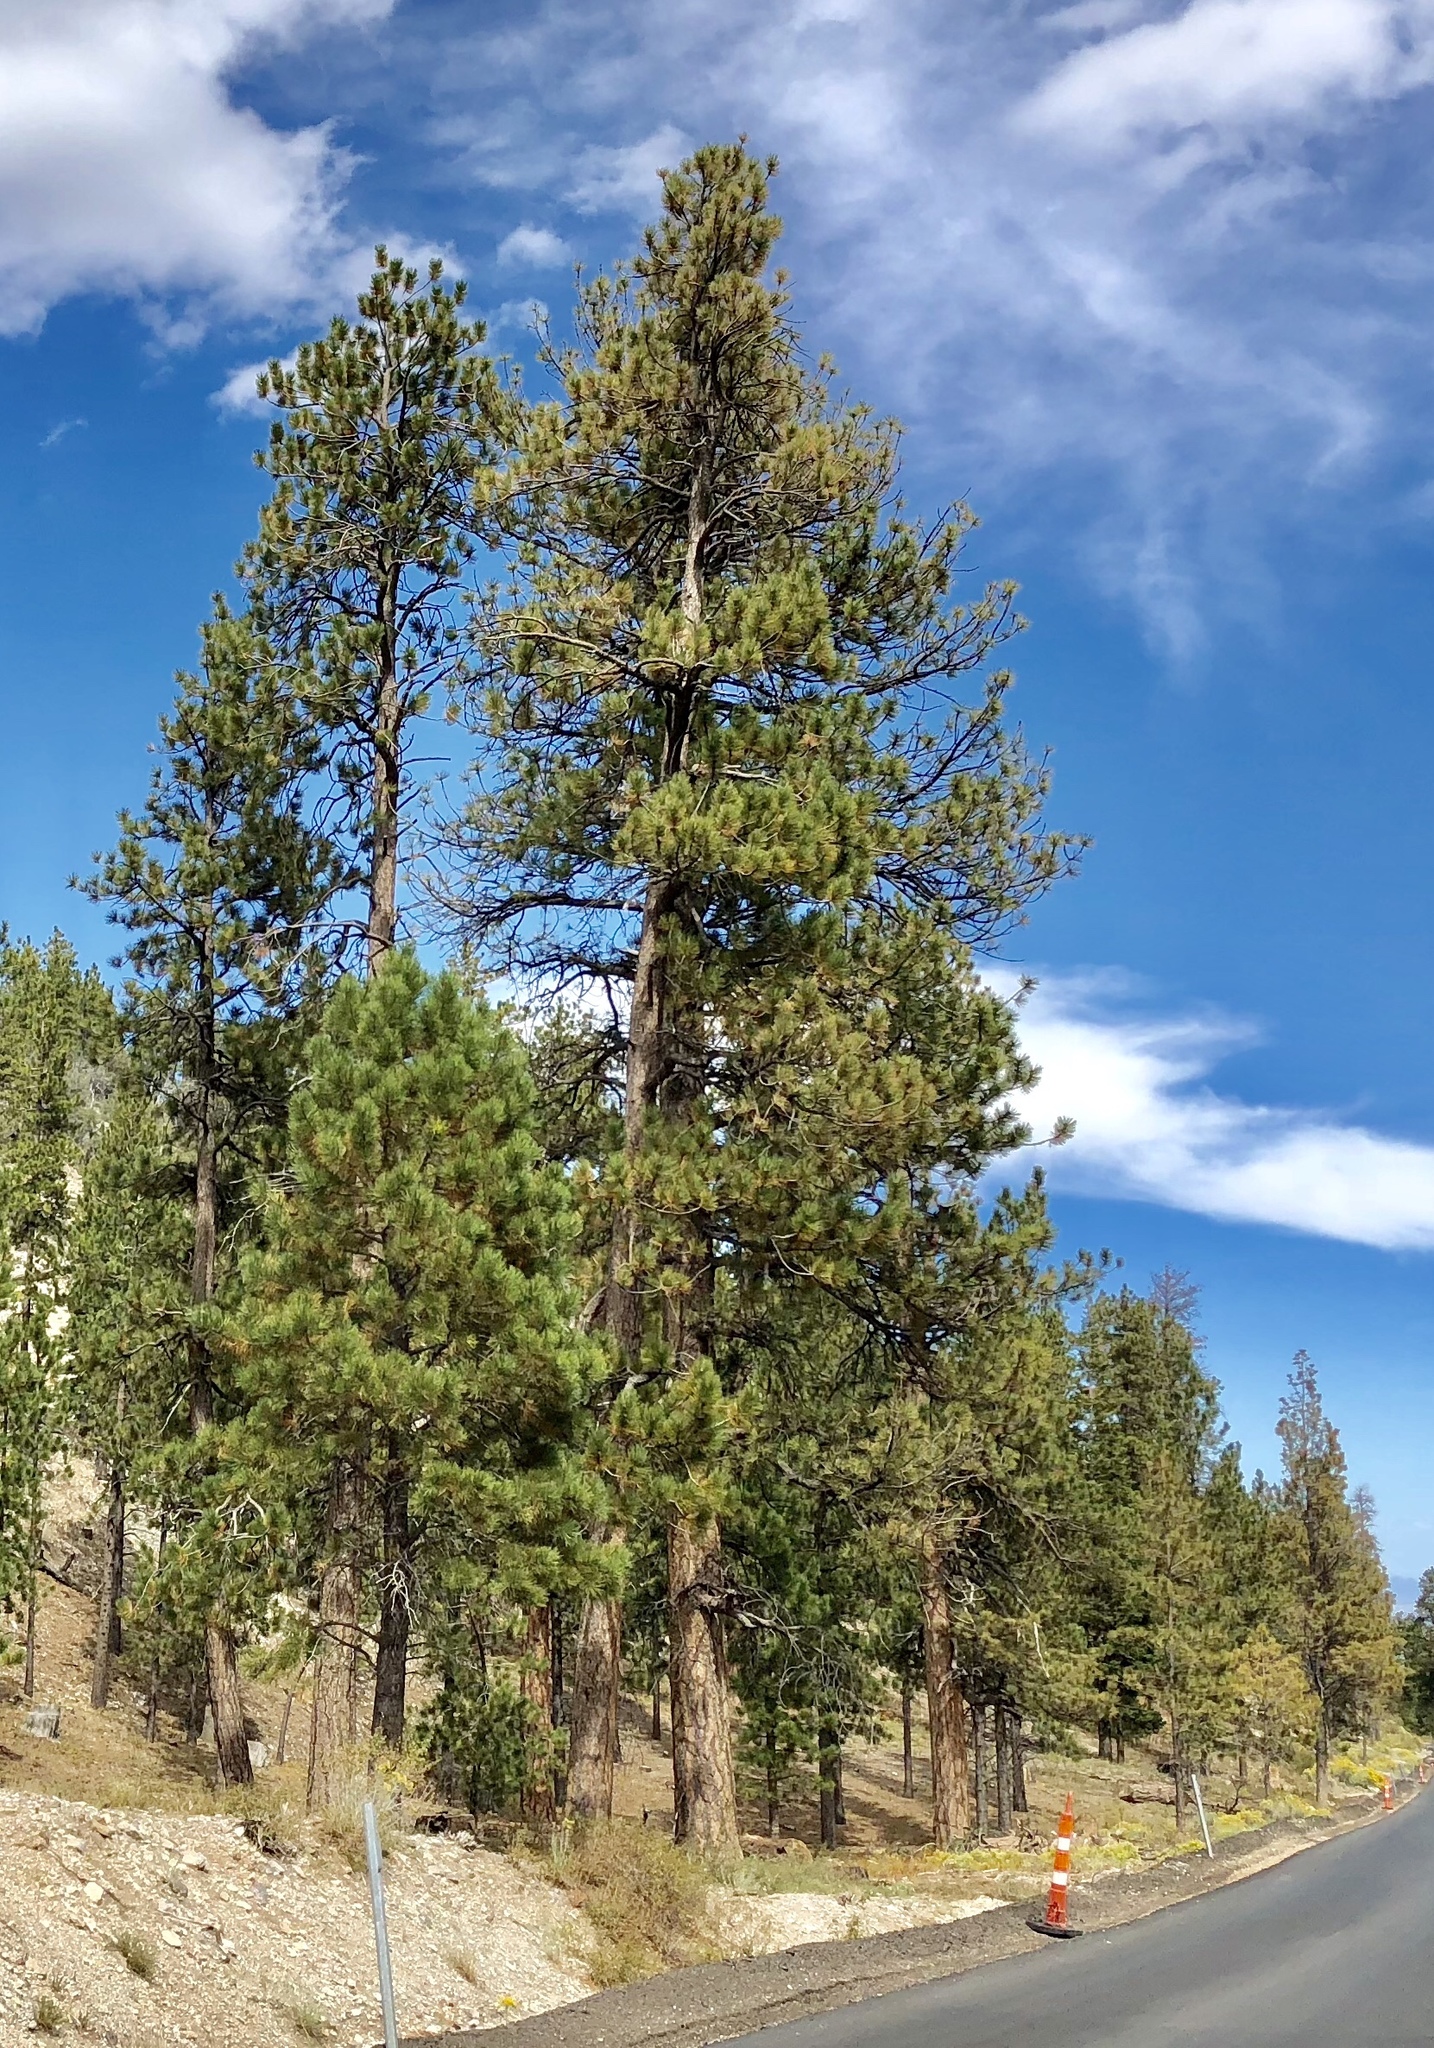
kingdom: Plantae
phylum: Tracheophyta
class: Pinopsida
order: Pinales
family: Pinaceae
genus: Pinus
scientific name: Pinus ponderosa
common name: Western yellow-pine
